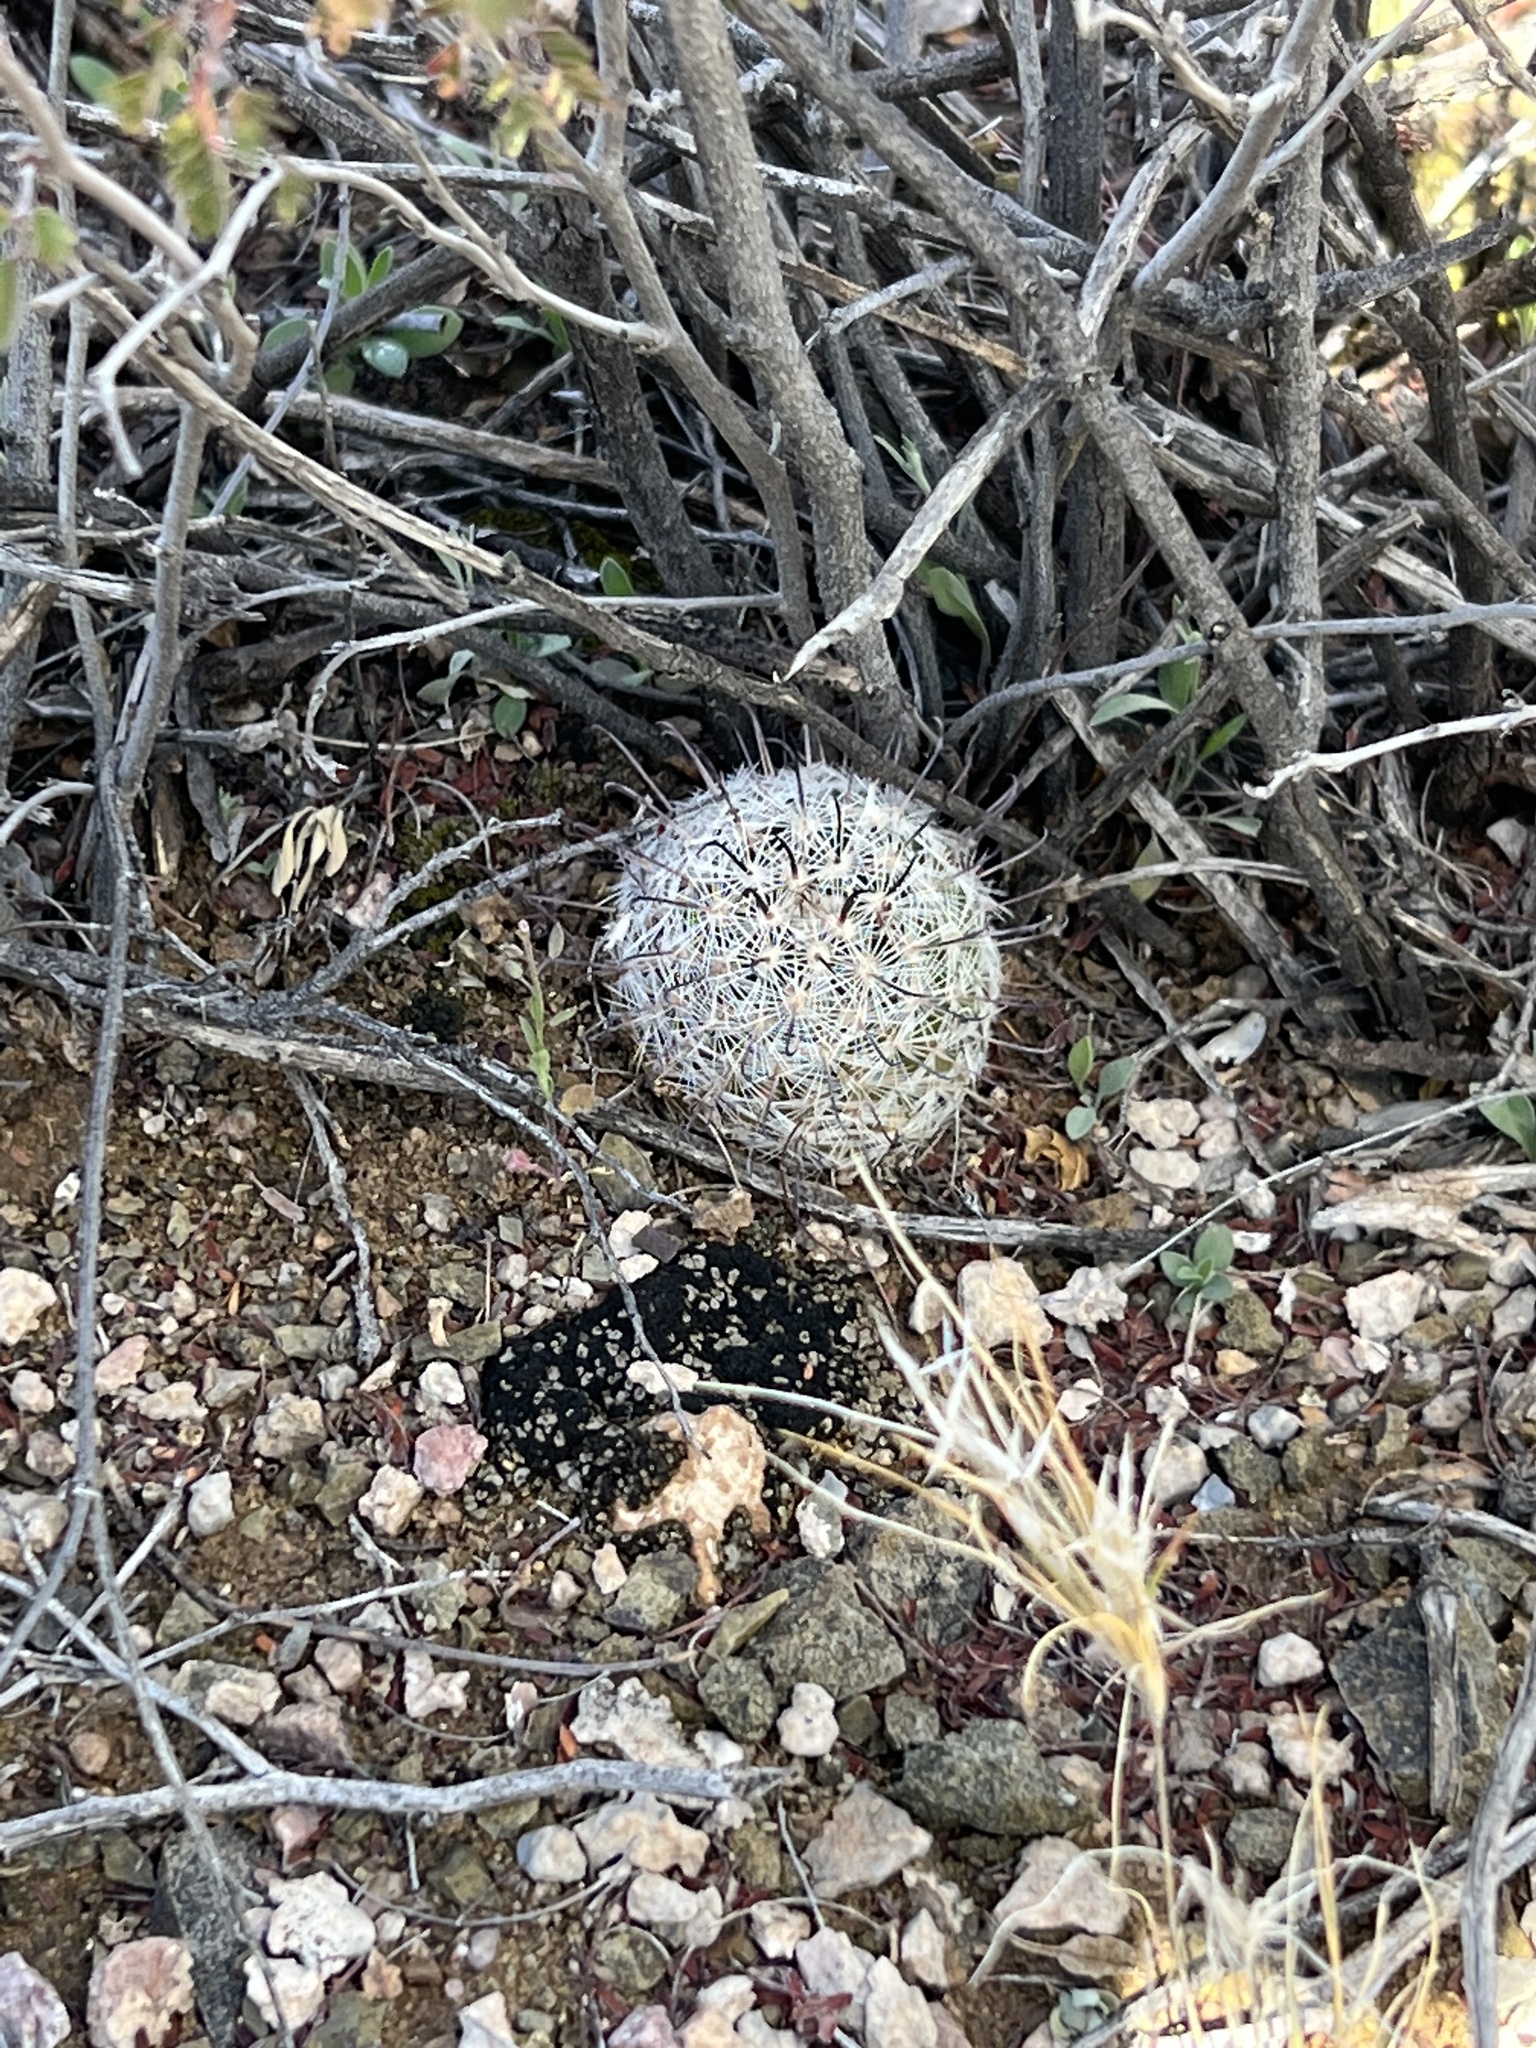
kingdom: Plantae
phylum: Tracheophyta
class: Magnoliopsida
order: Caryophyllales
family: Cactaceae
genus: Cochemiea
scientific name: Cochemiea grahamii
